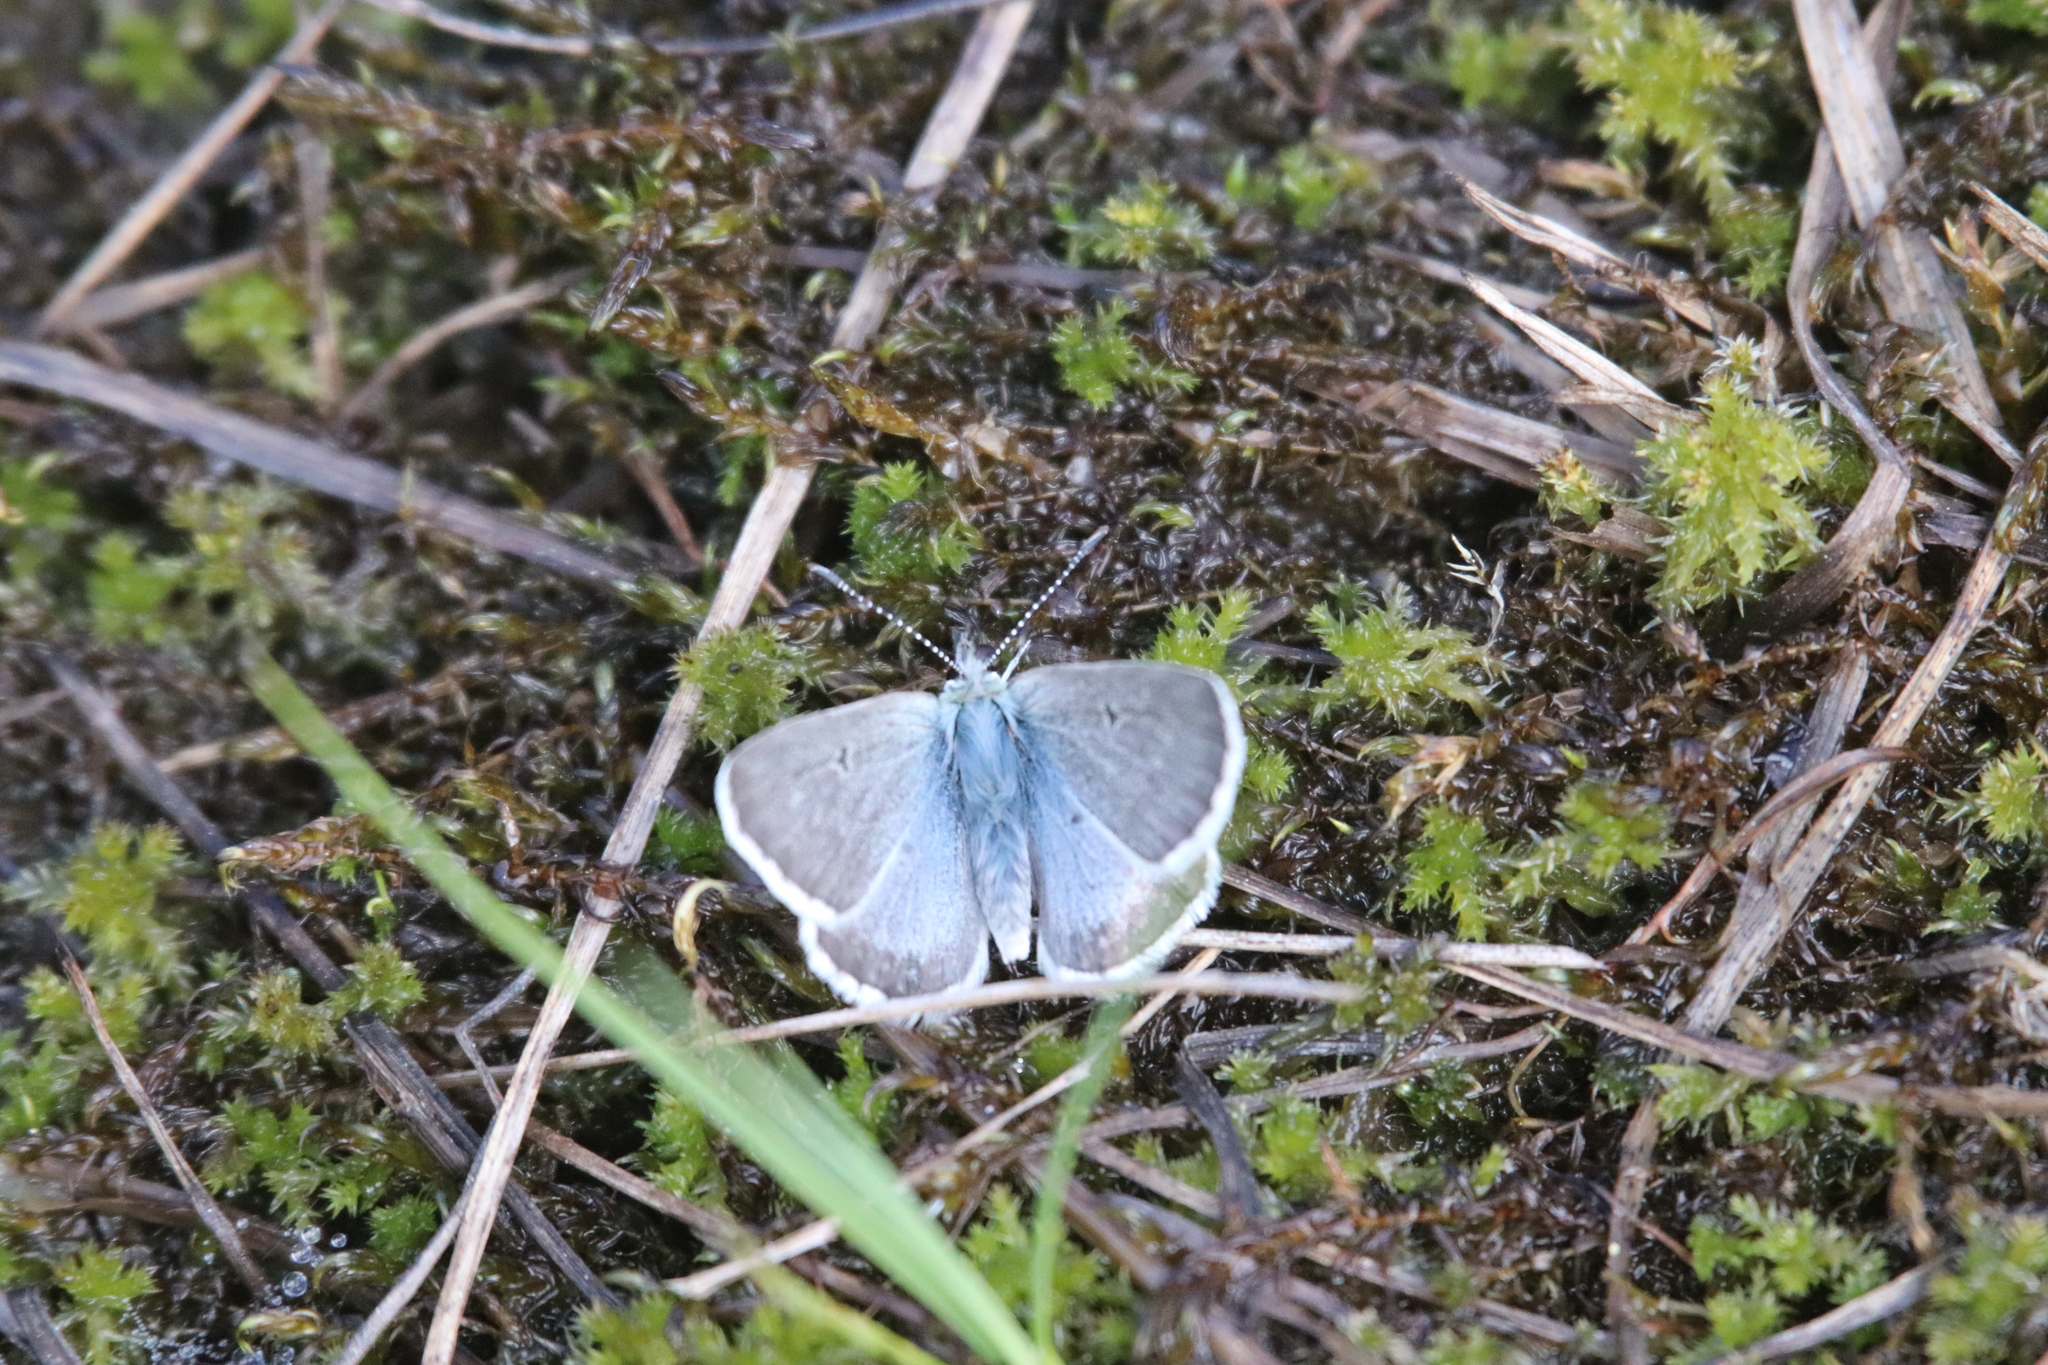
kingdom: Animalia
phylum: Arthropoda
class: Insecta
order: Lepidoptera
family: Lycaenidae
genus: Agriades
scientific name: Agriades glandon
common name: Glandon blue
